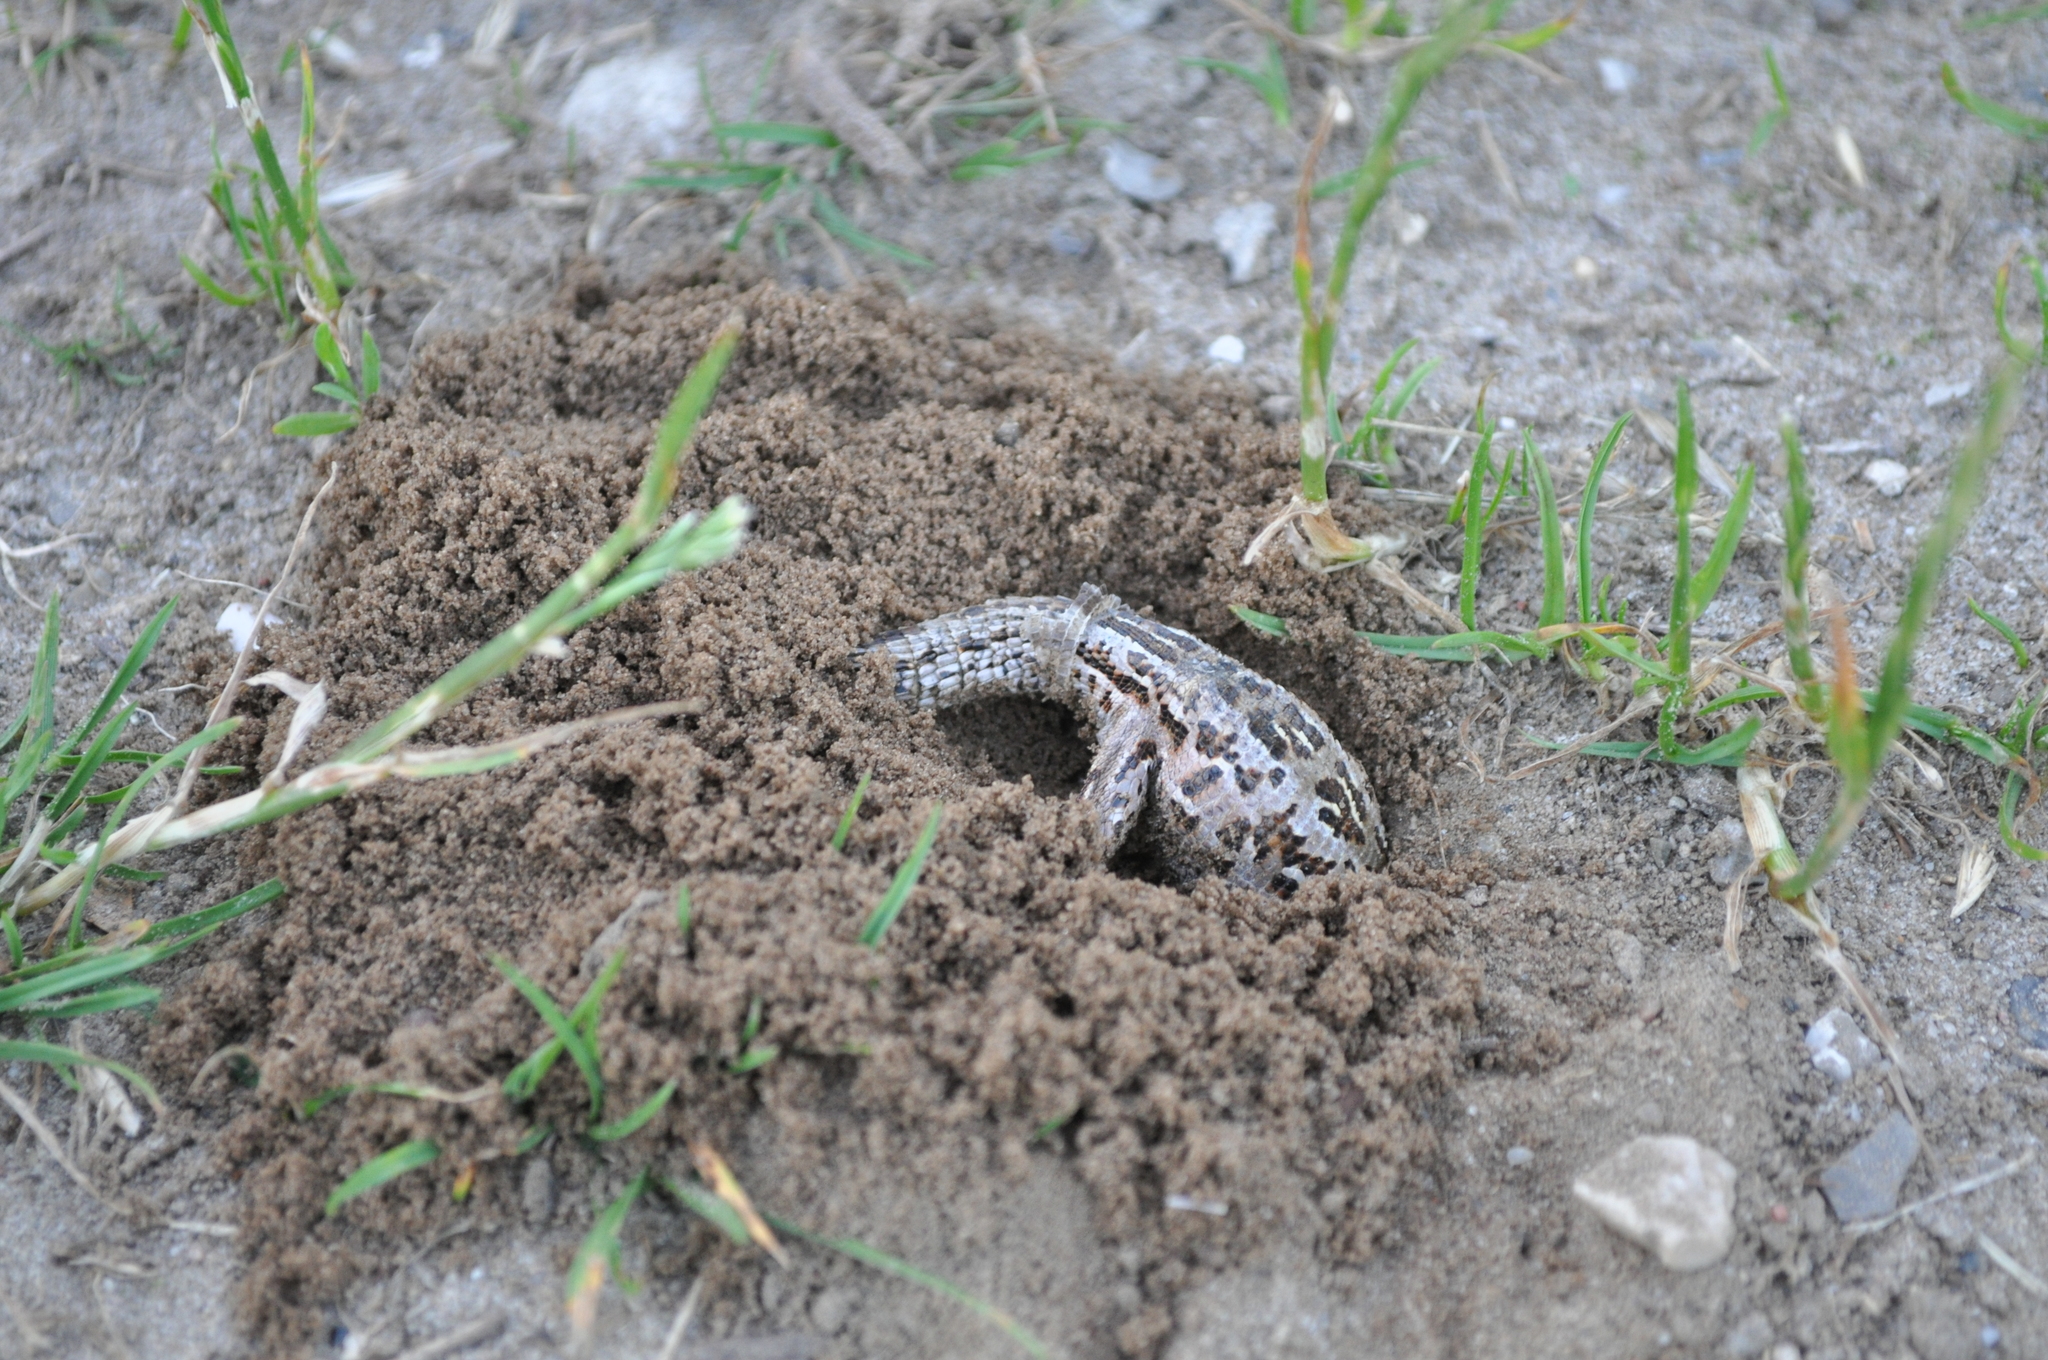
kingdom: Animalia
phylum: Chordata
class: Squamata
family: Lacertidae
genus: Lacerta
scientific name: Lacerta agilis
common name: Sand lizard
